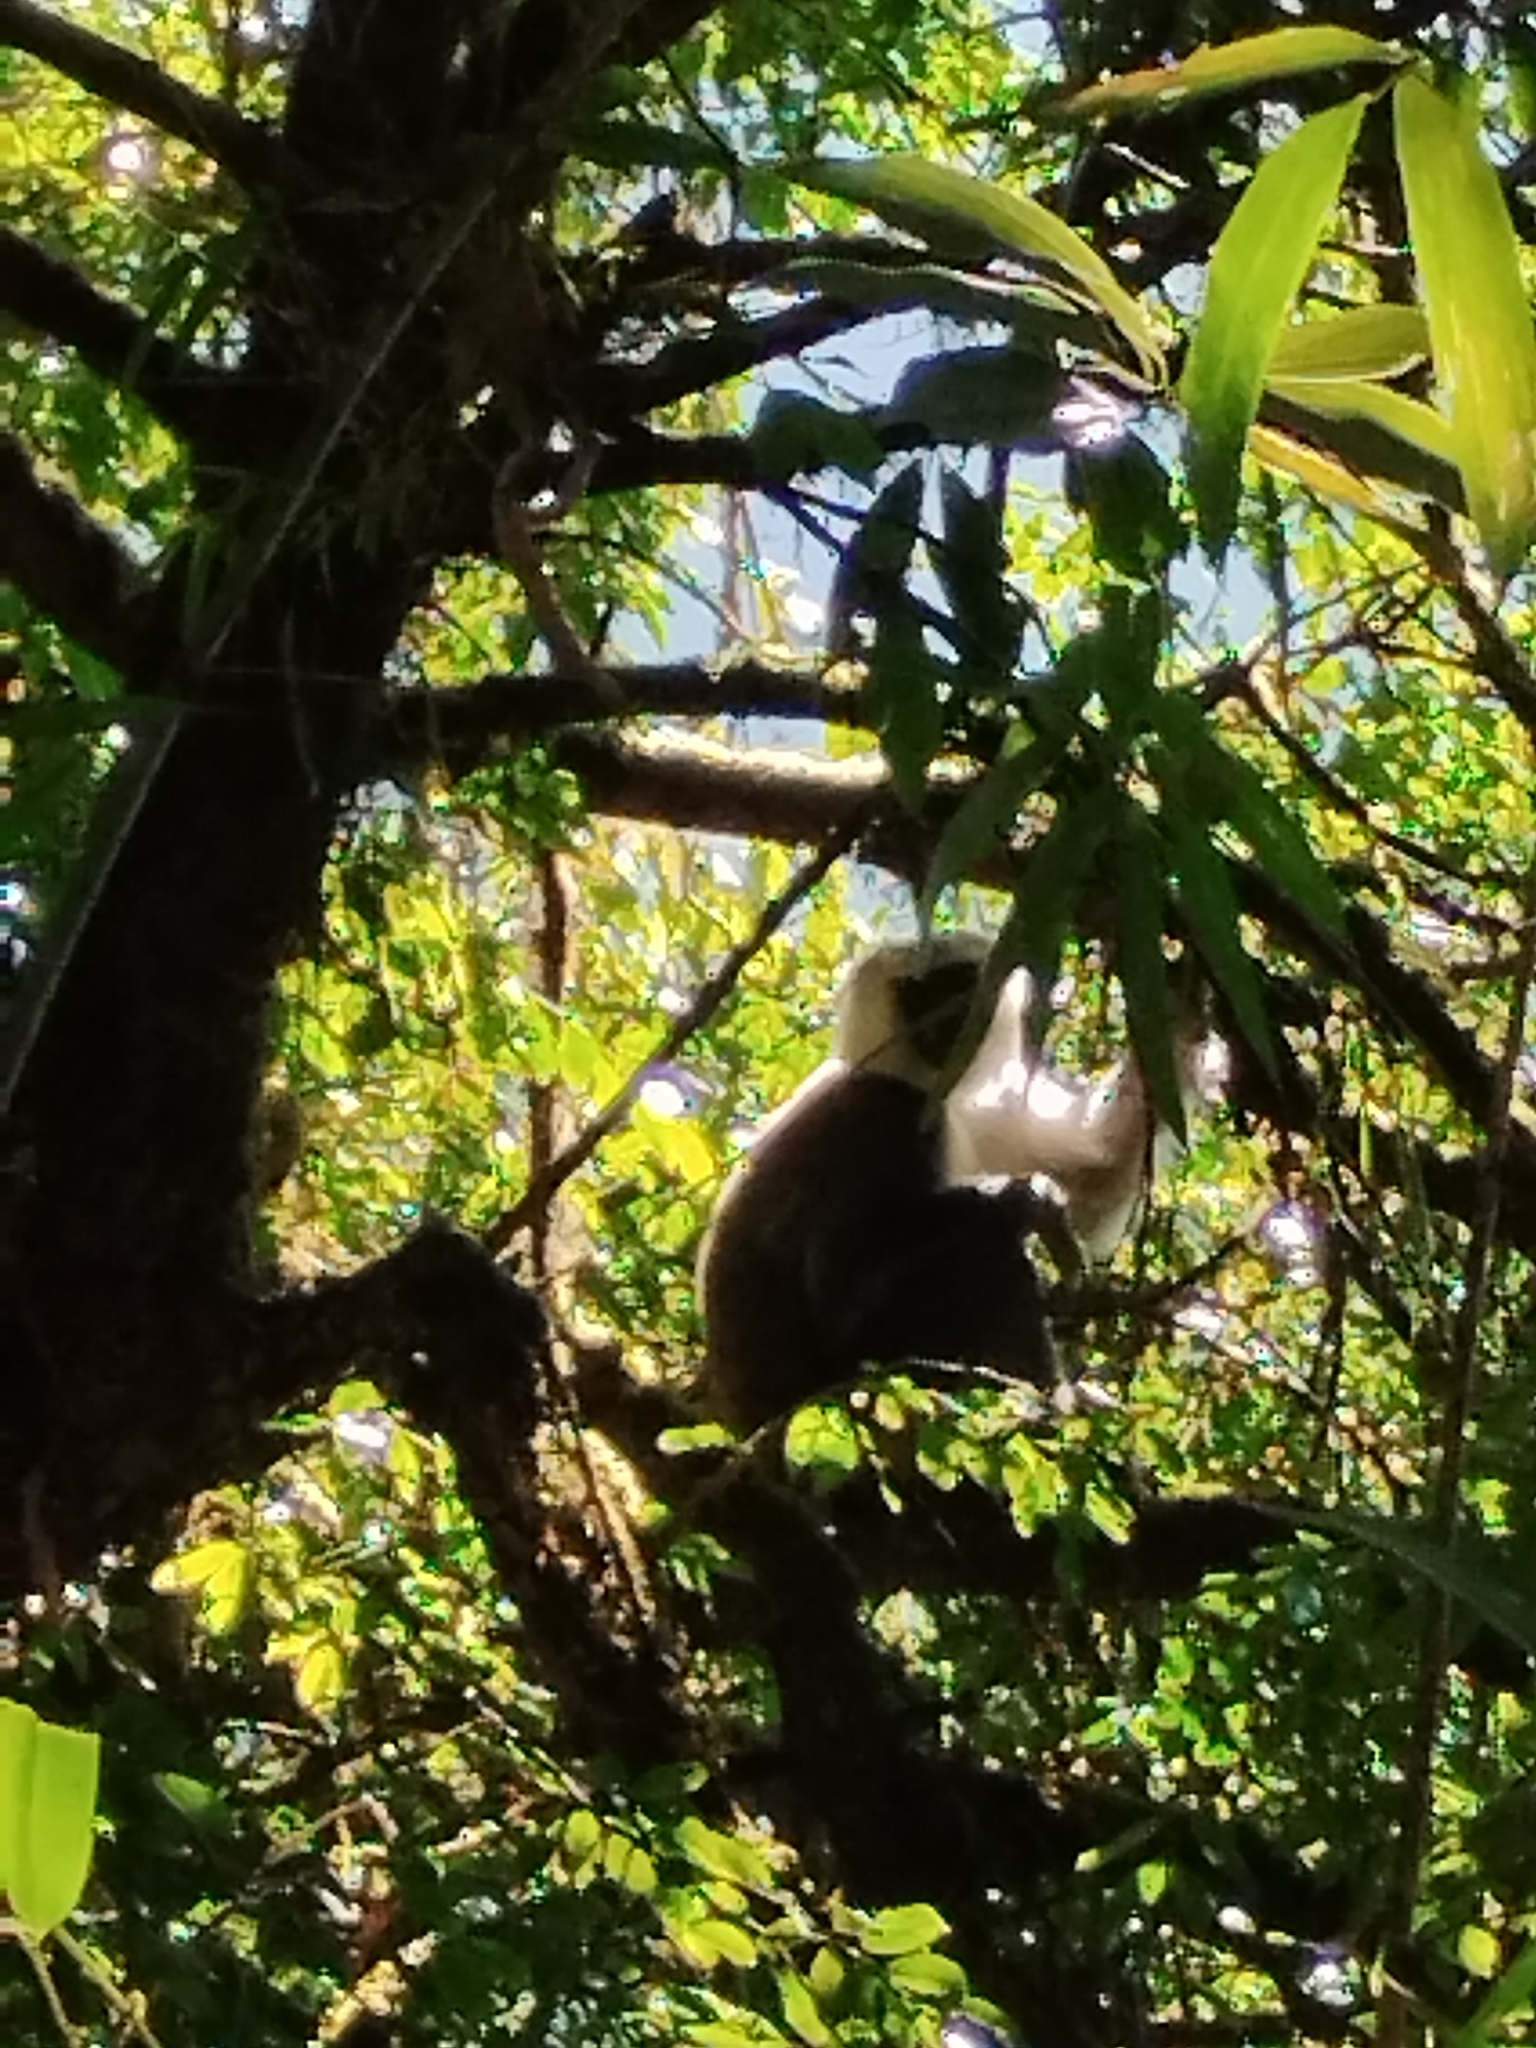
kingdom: Animalia
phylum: Chordata
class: Mammalia
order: Primates
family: Cercopithecidae
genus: Semnopithecus
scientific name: Semnopithecus schistaceus
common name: Nepal gray langur
